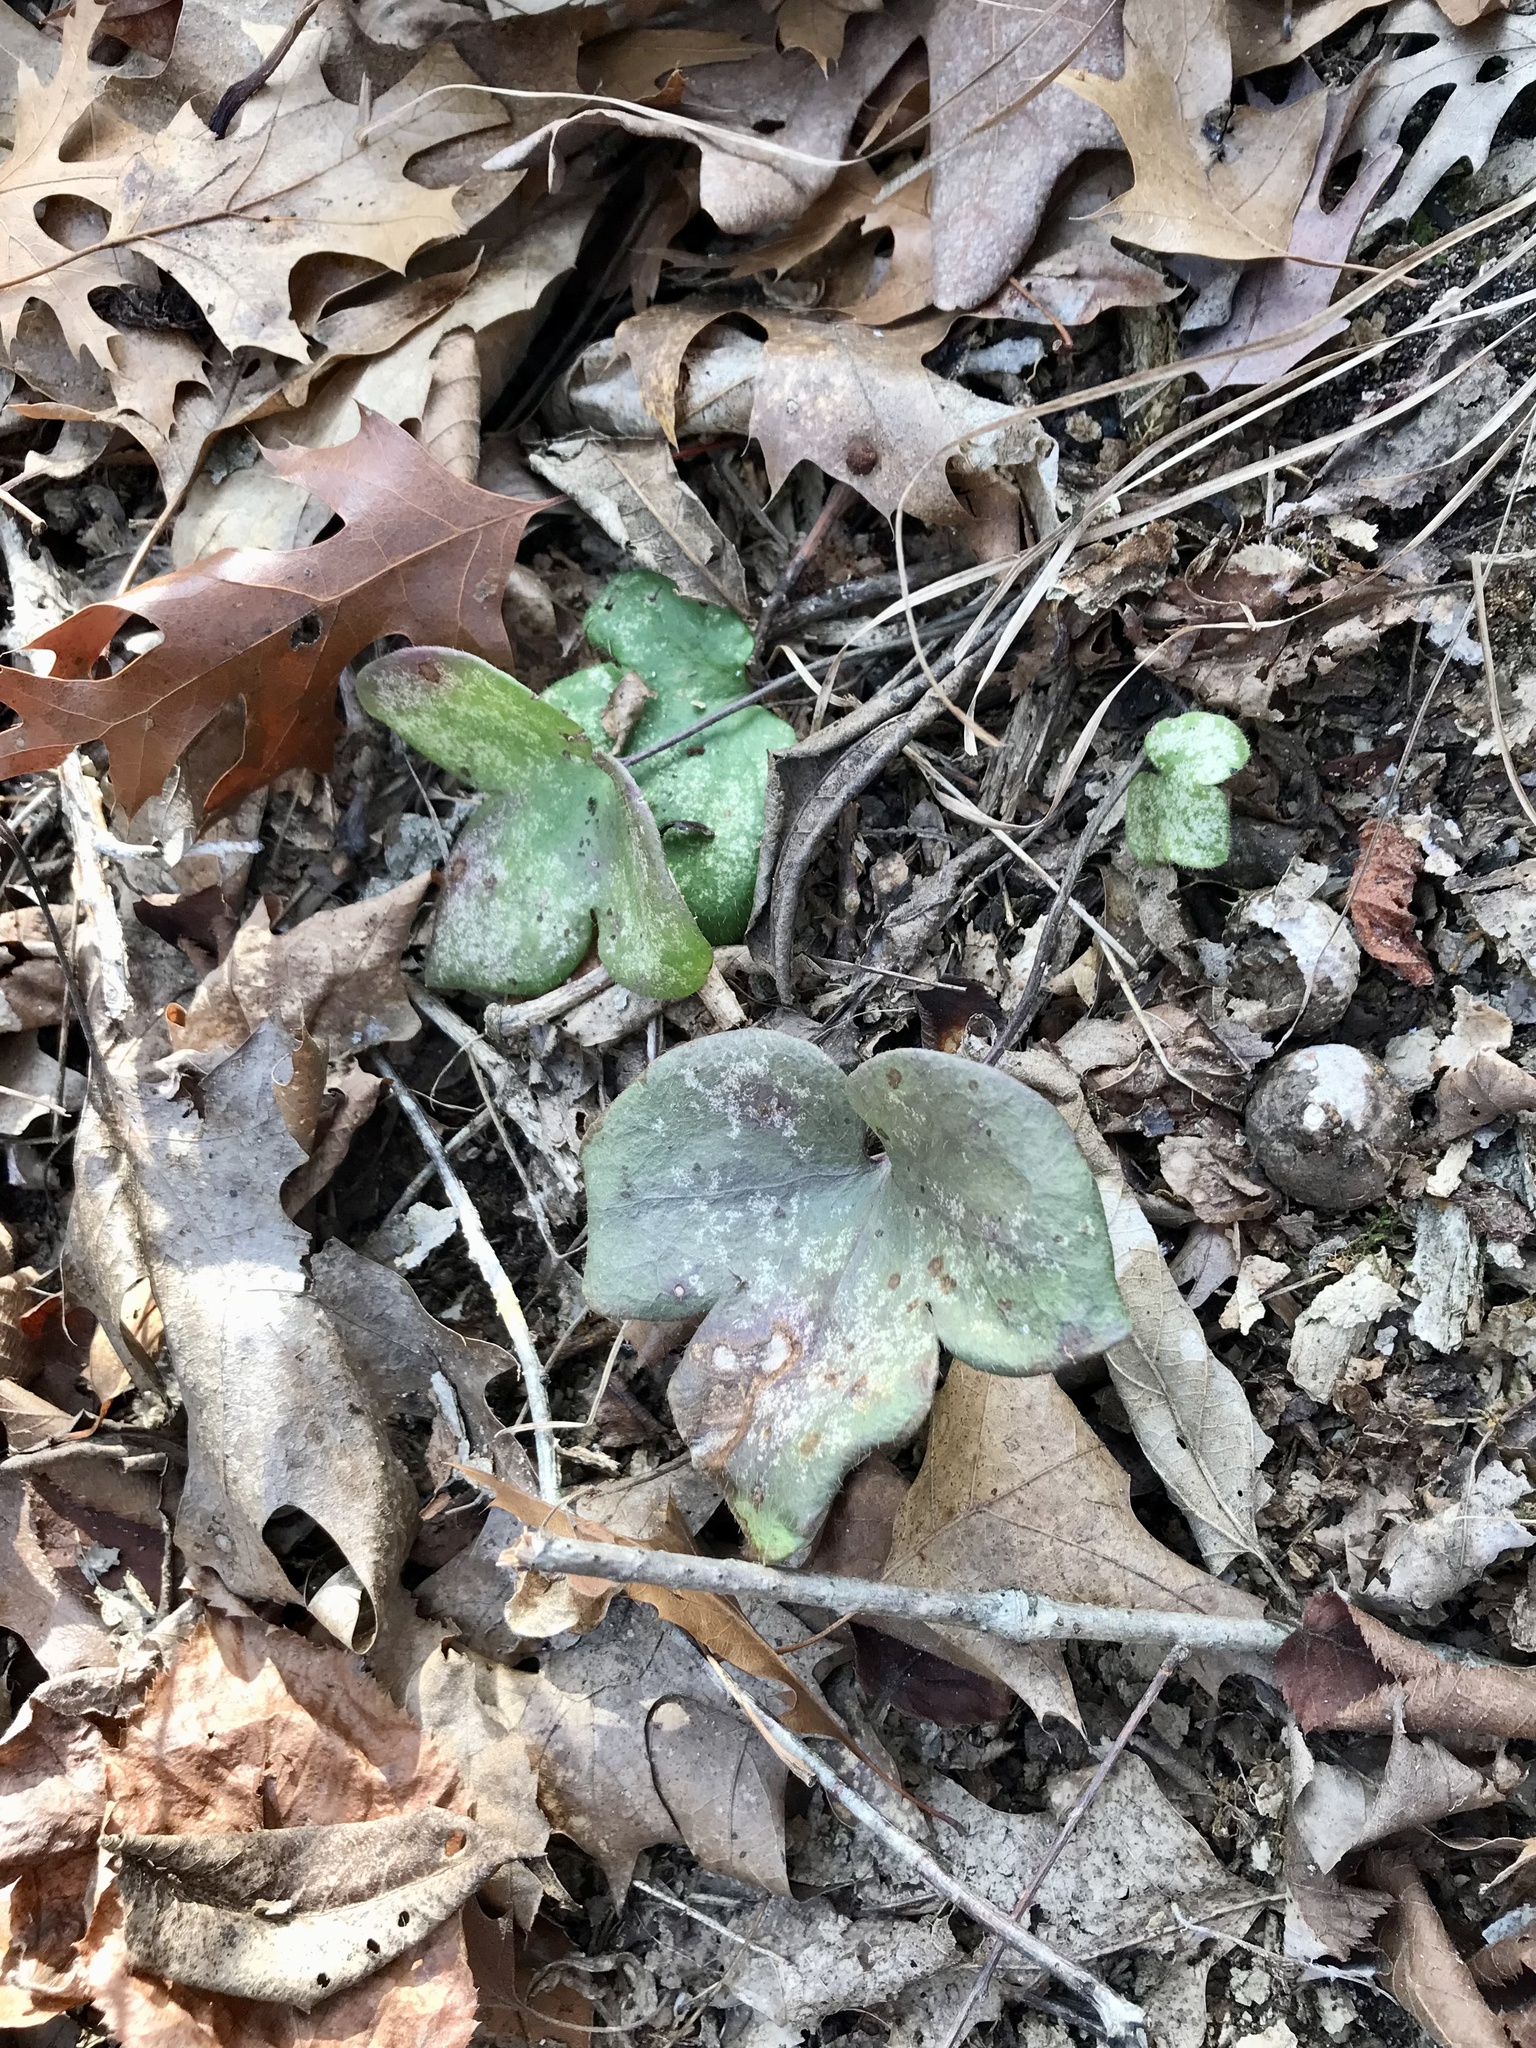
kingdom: Plantae
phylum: Tracheophyta
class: Magnoliopsida
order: Ranunculales
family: Ranunculaceae
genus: Hepatica
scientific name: Hepatica acutiloba
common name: Sharp-lobed hepatica
